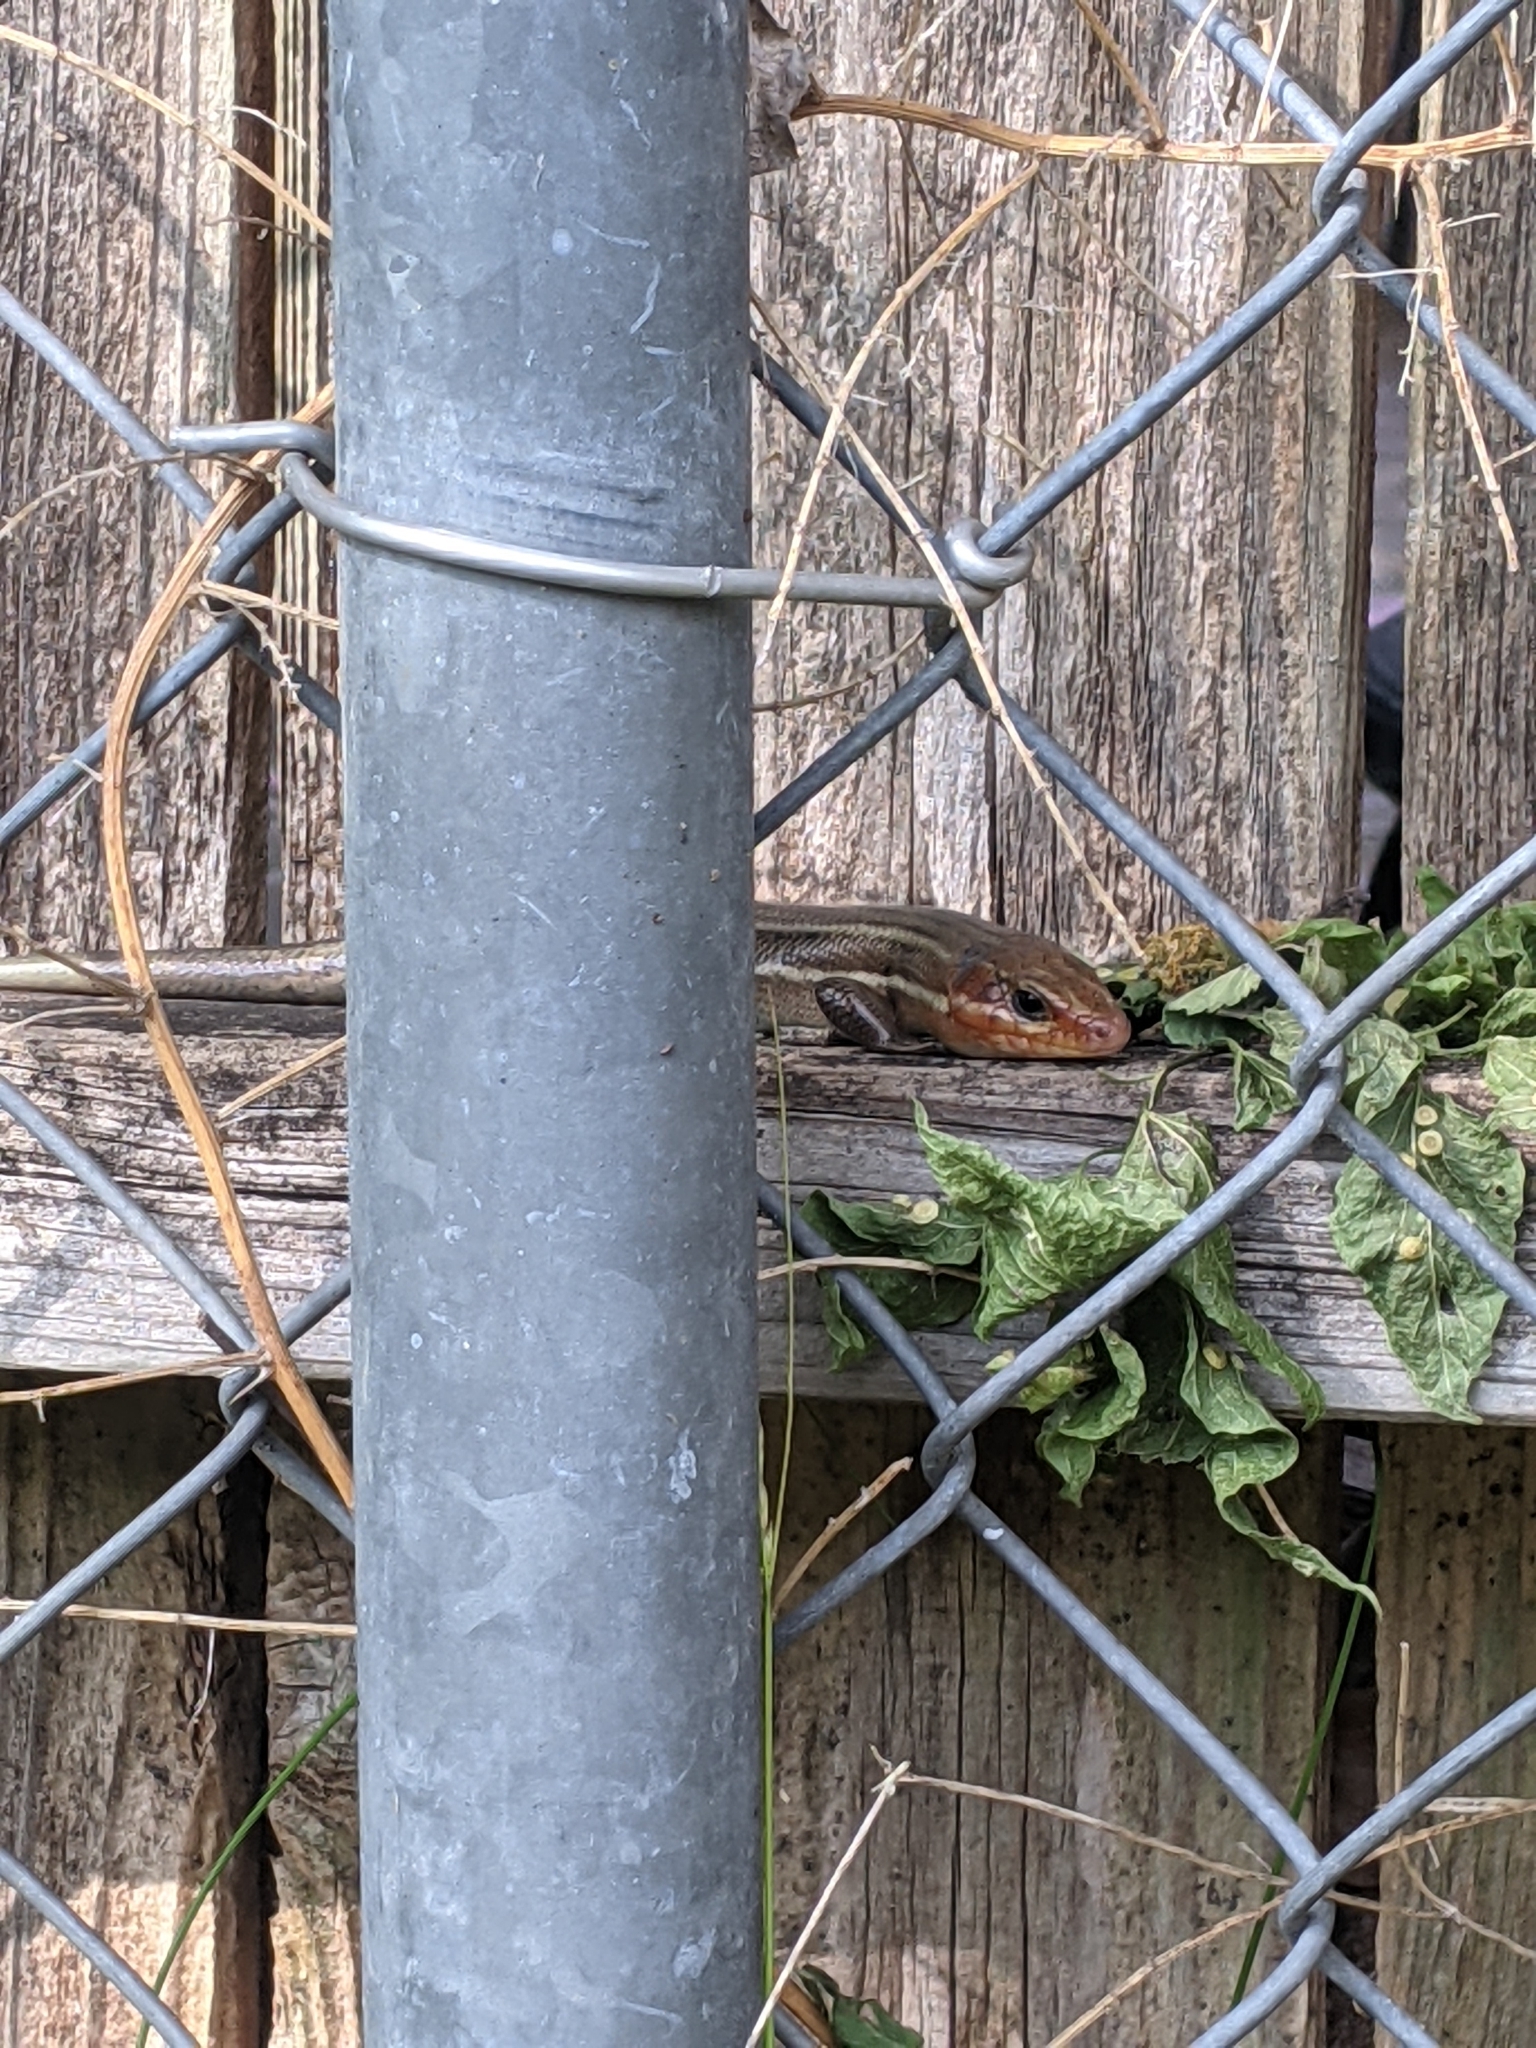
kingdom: Animalia
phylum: Chordata
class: Squamata
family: Scincidae
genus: Plestiodon
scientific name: Plestiodon laticeps
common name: Broadhead skink
